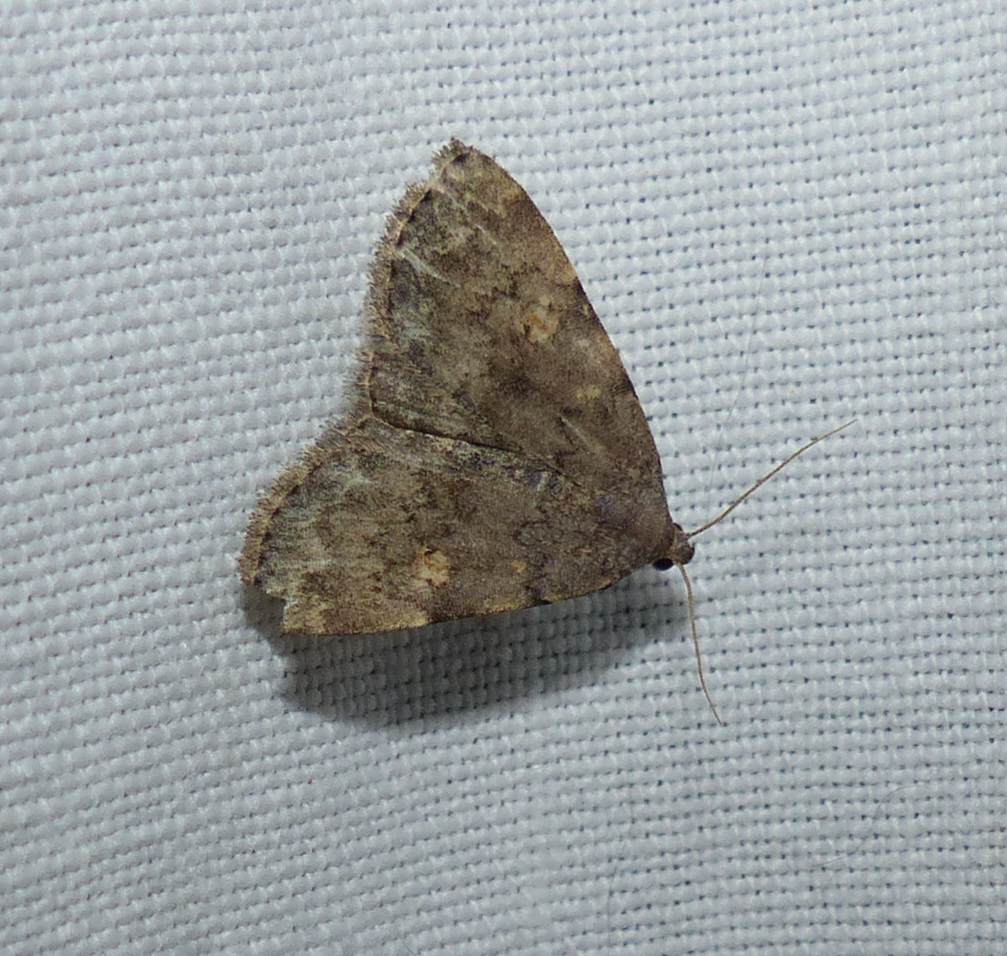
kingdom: Animalia
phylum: Arthropoda
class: Insecta
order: Lepidoptera
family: Erebidae
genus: Idia
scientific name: Idia aemula
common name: Common idia moth
